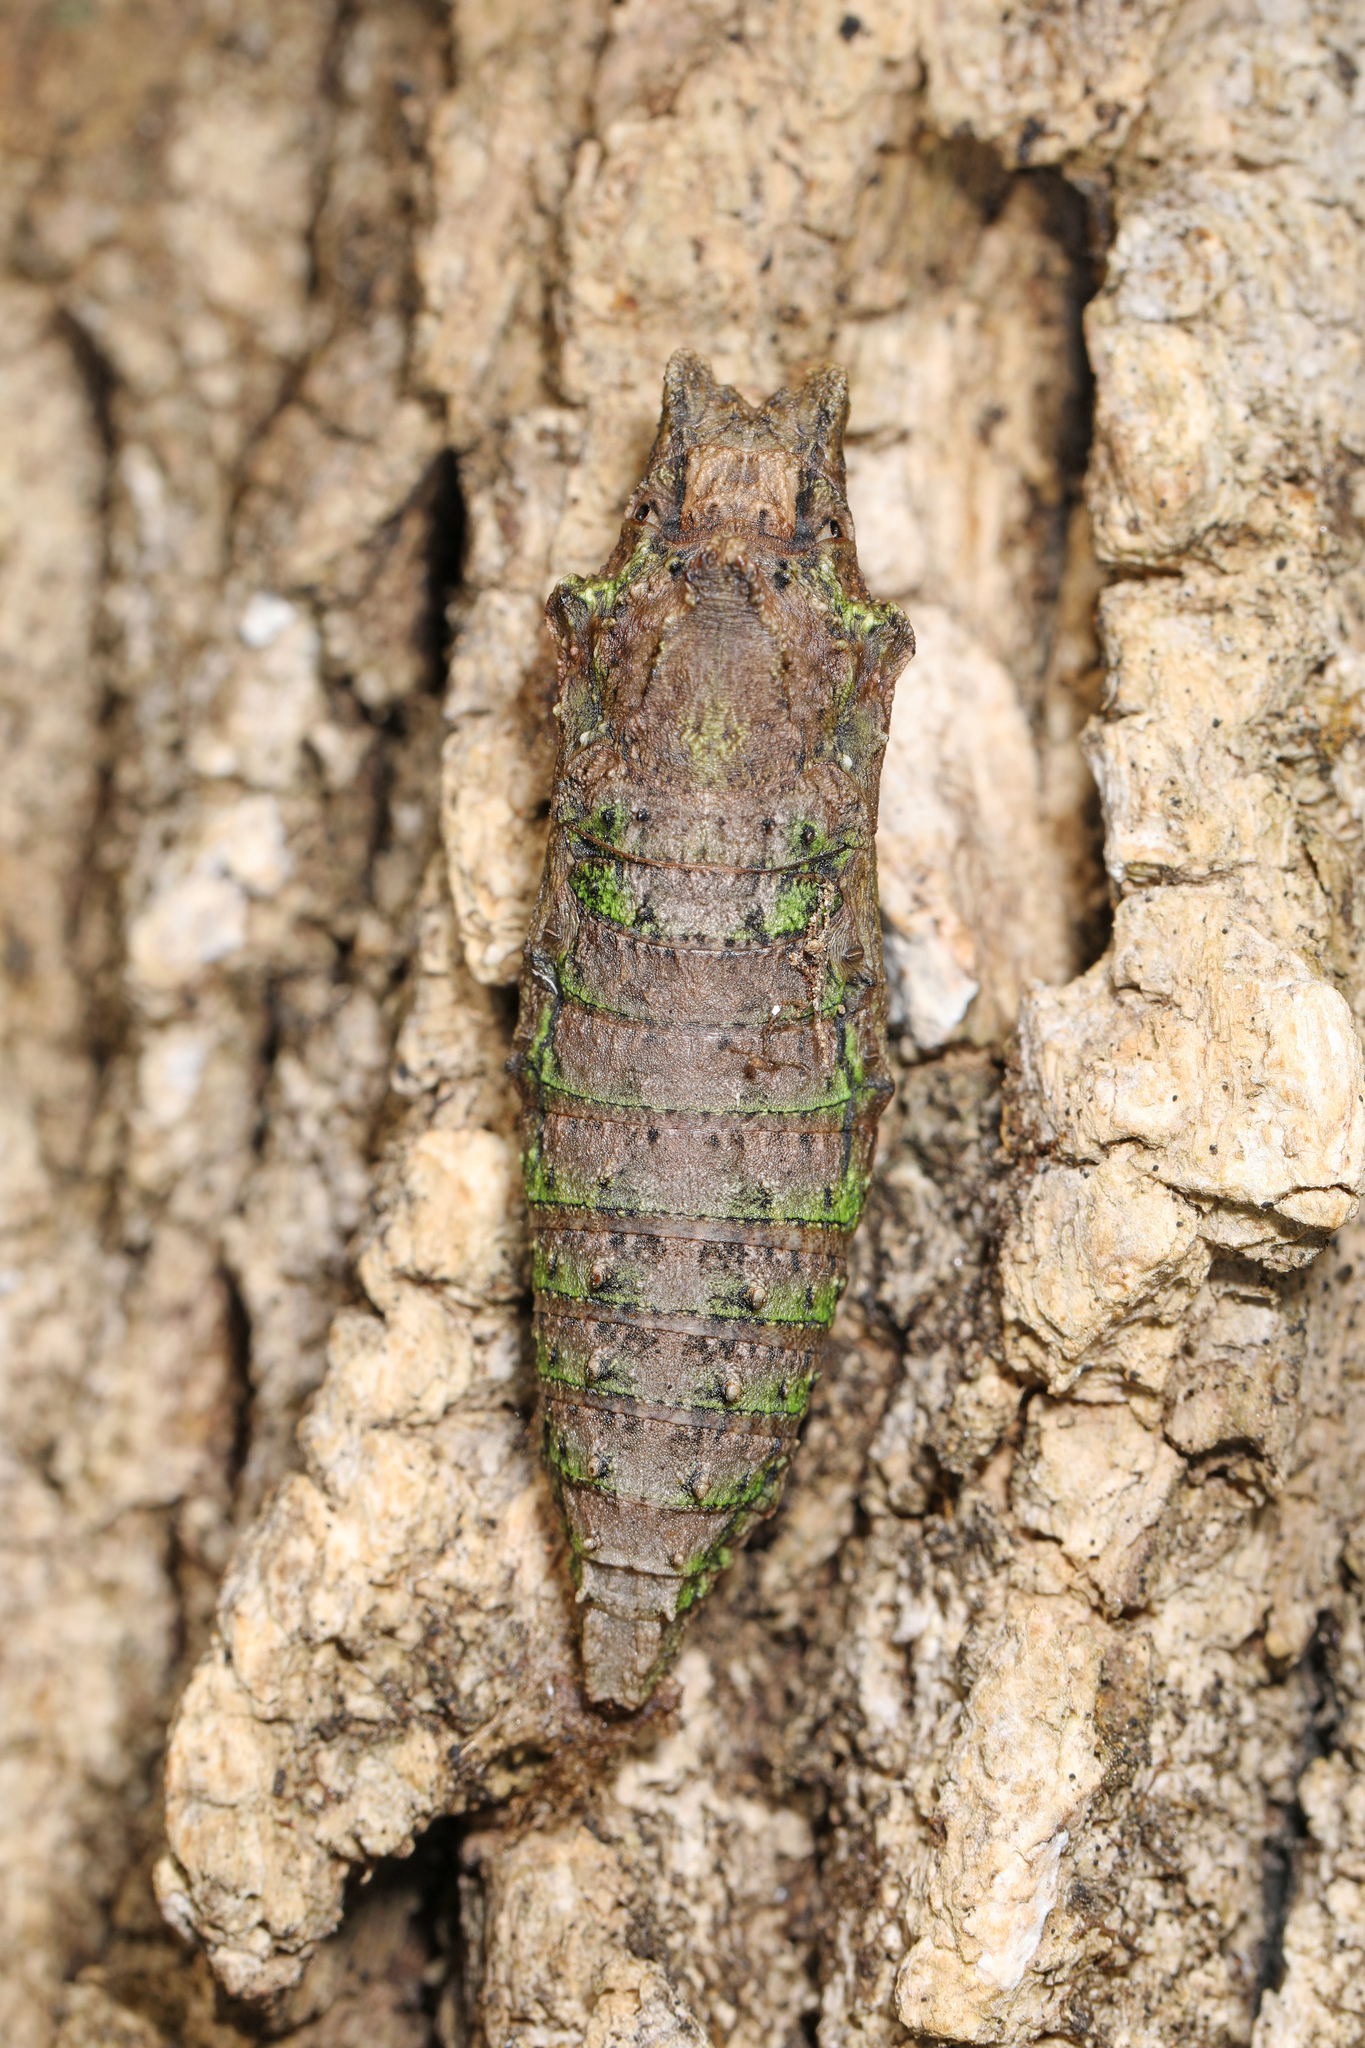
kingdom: Animalia
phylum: Arthropoda
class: Insecta
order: Lepidoptera
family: Papilionidae
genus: Papilio
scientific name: Papilio glaucus
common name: Tiger swallowtail
